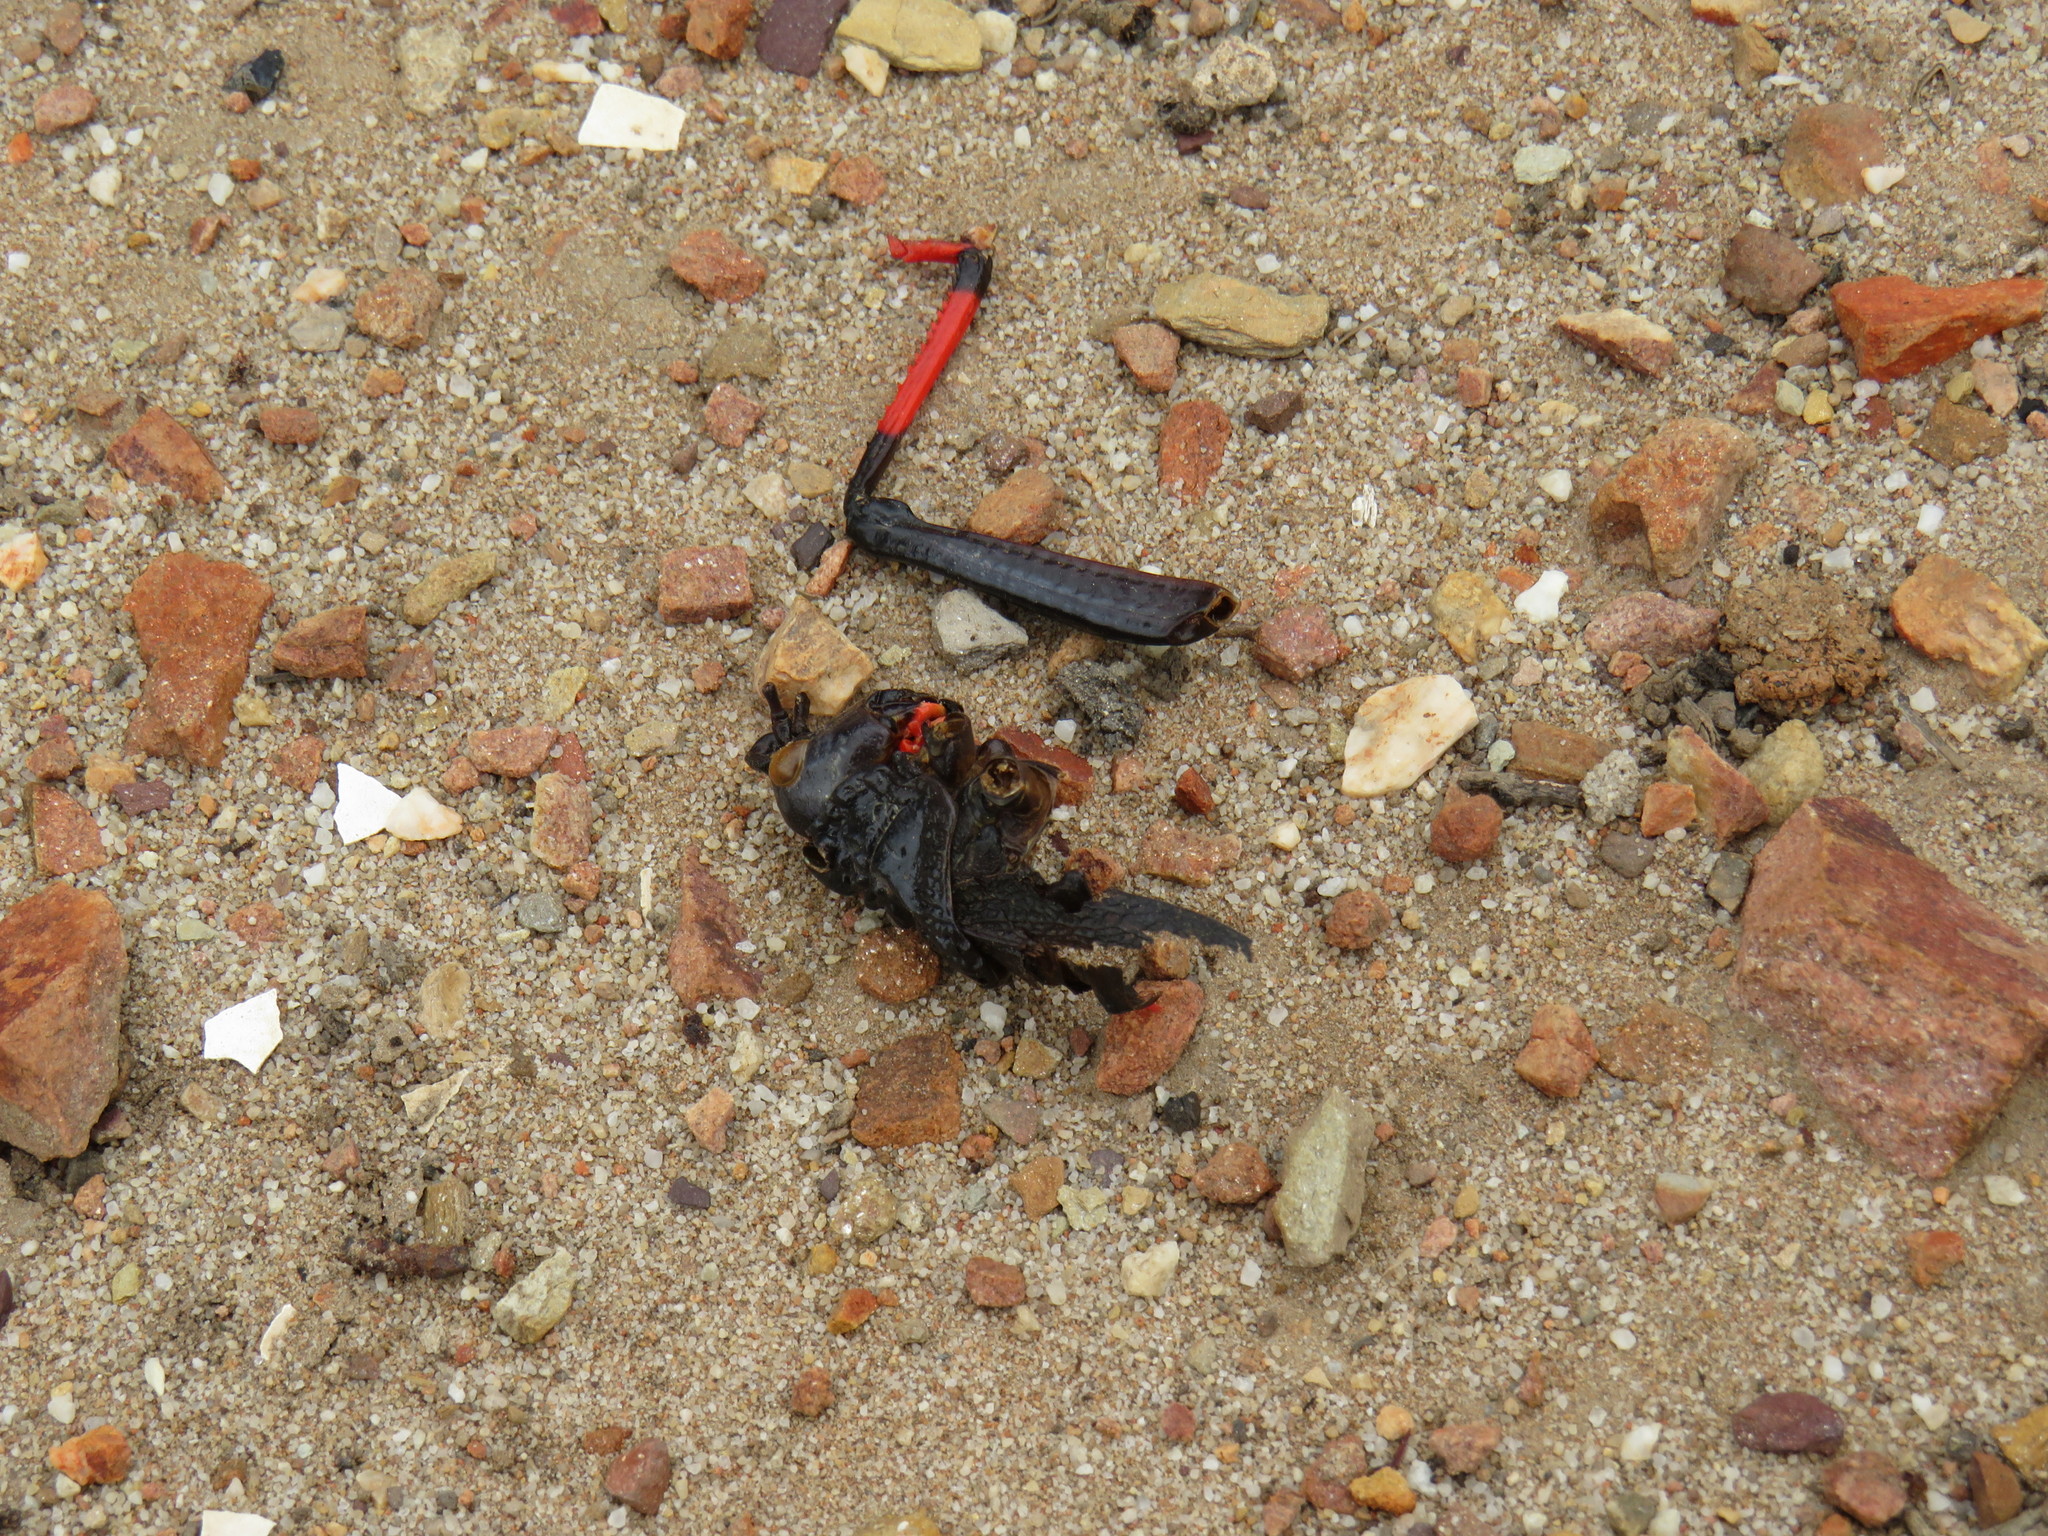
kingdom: Animalia
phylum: Arthropoda
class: Insecta
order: Orthoptera
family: Pyrgomorphidae
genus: Dictyophorus
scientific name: Dictyophorus spumans
